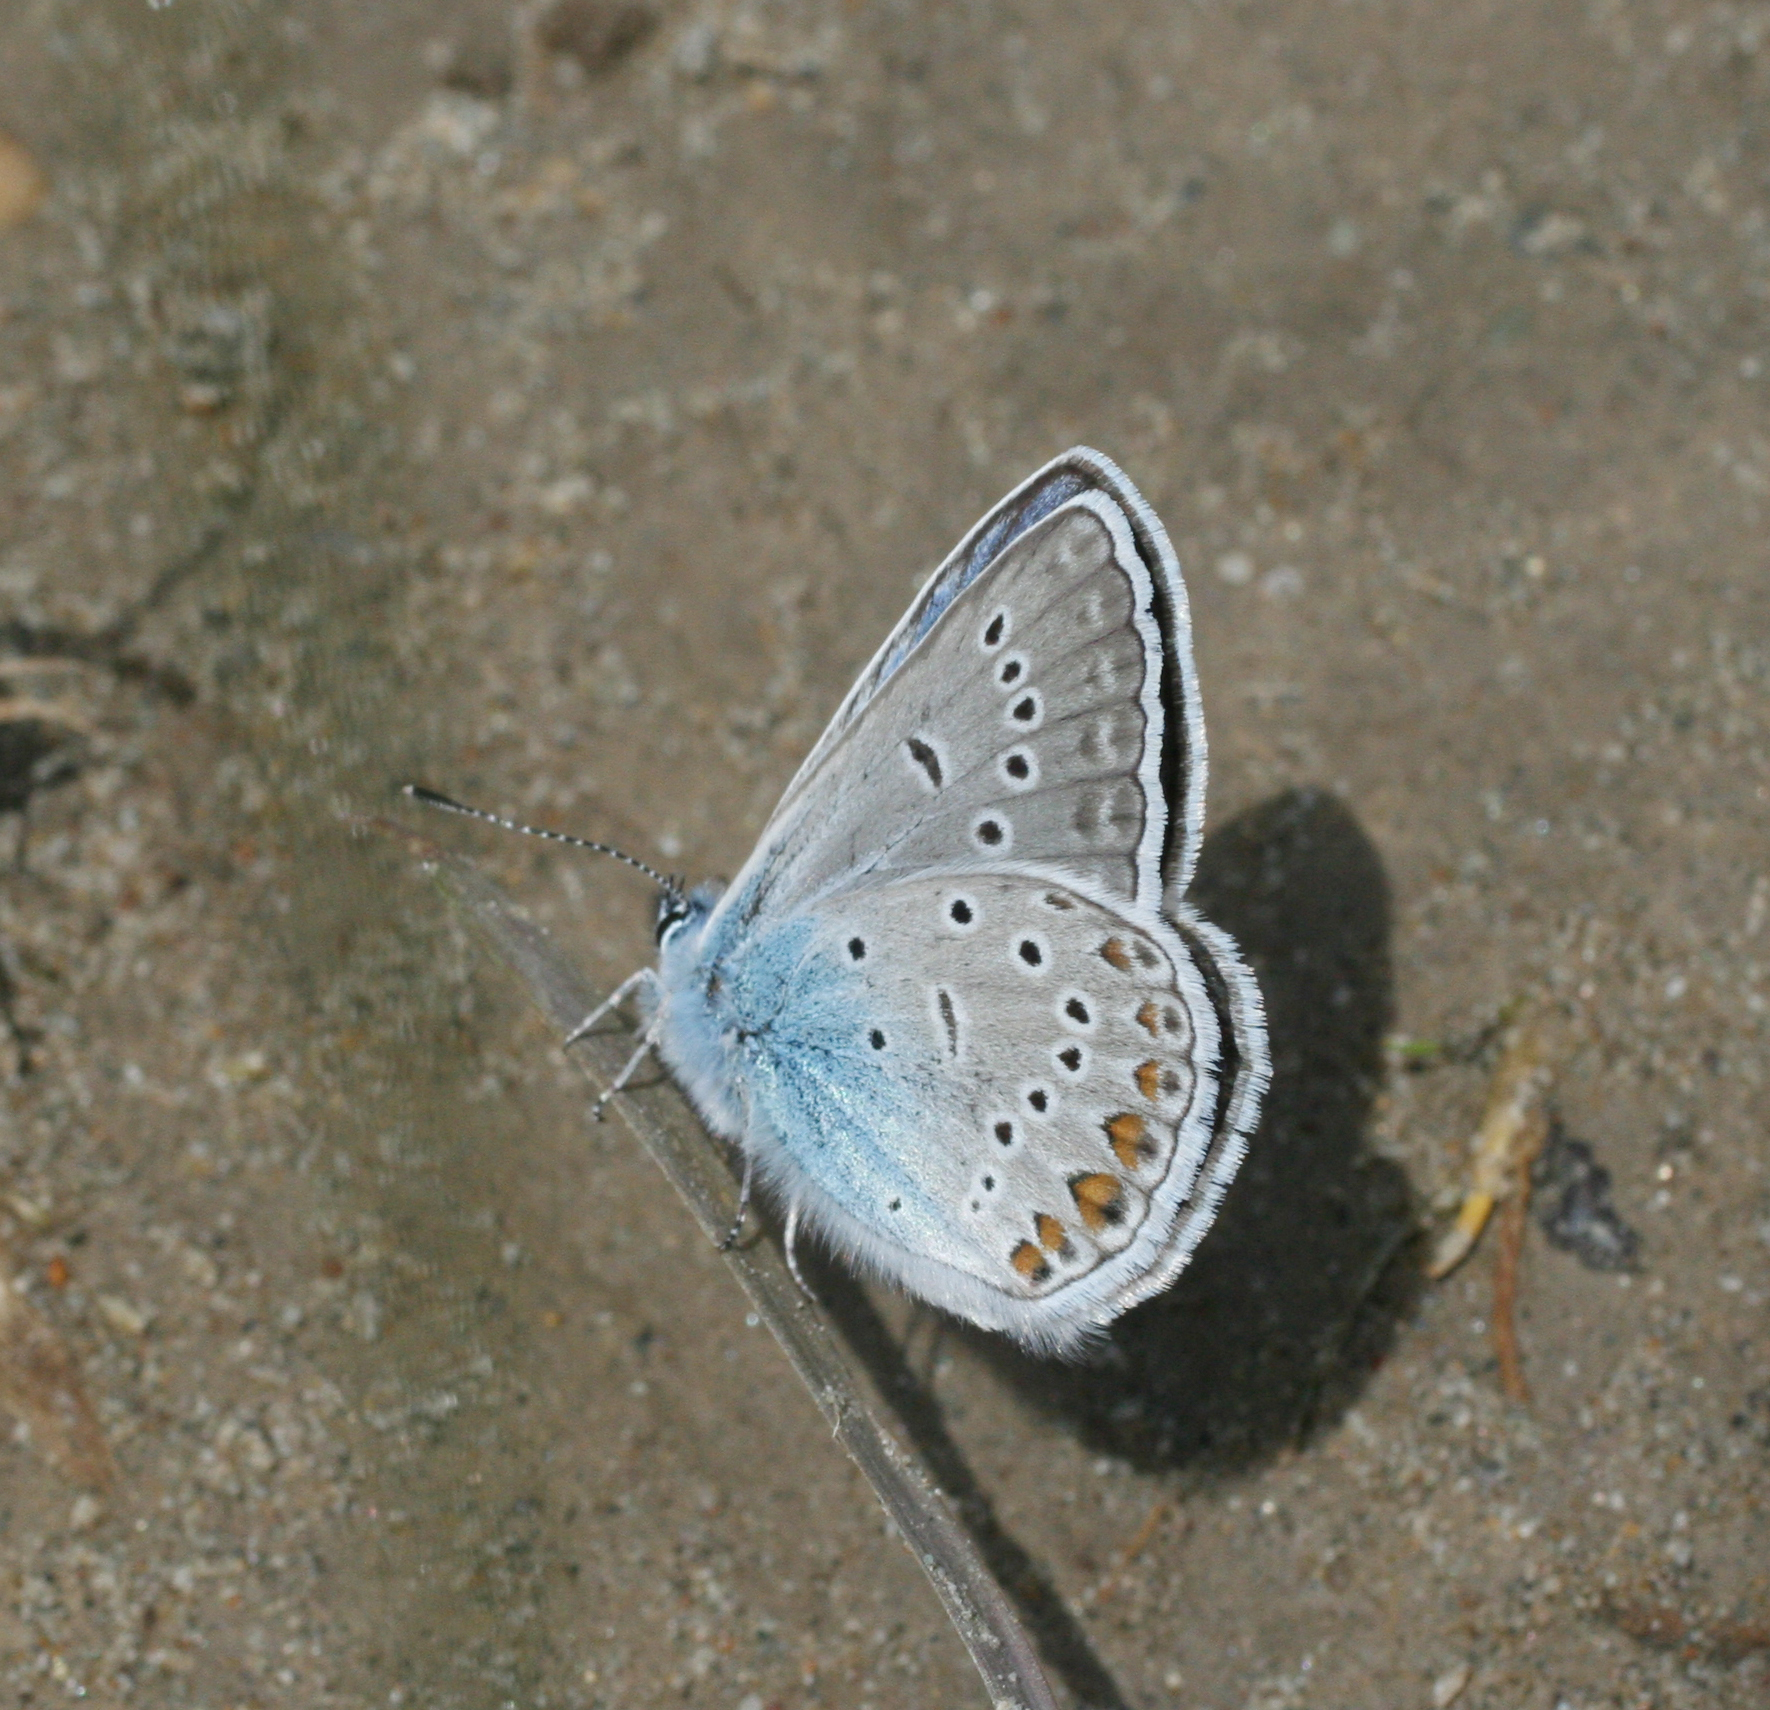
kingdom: Animalia
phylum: Arthropoda
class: Insecta
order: Lepidoptera
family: Lycaenidae
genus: Plebejus
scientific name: Plebejus amanda
